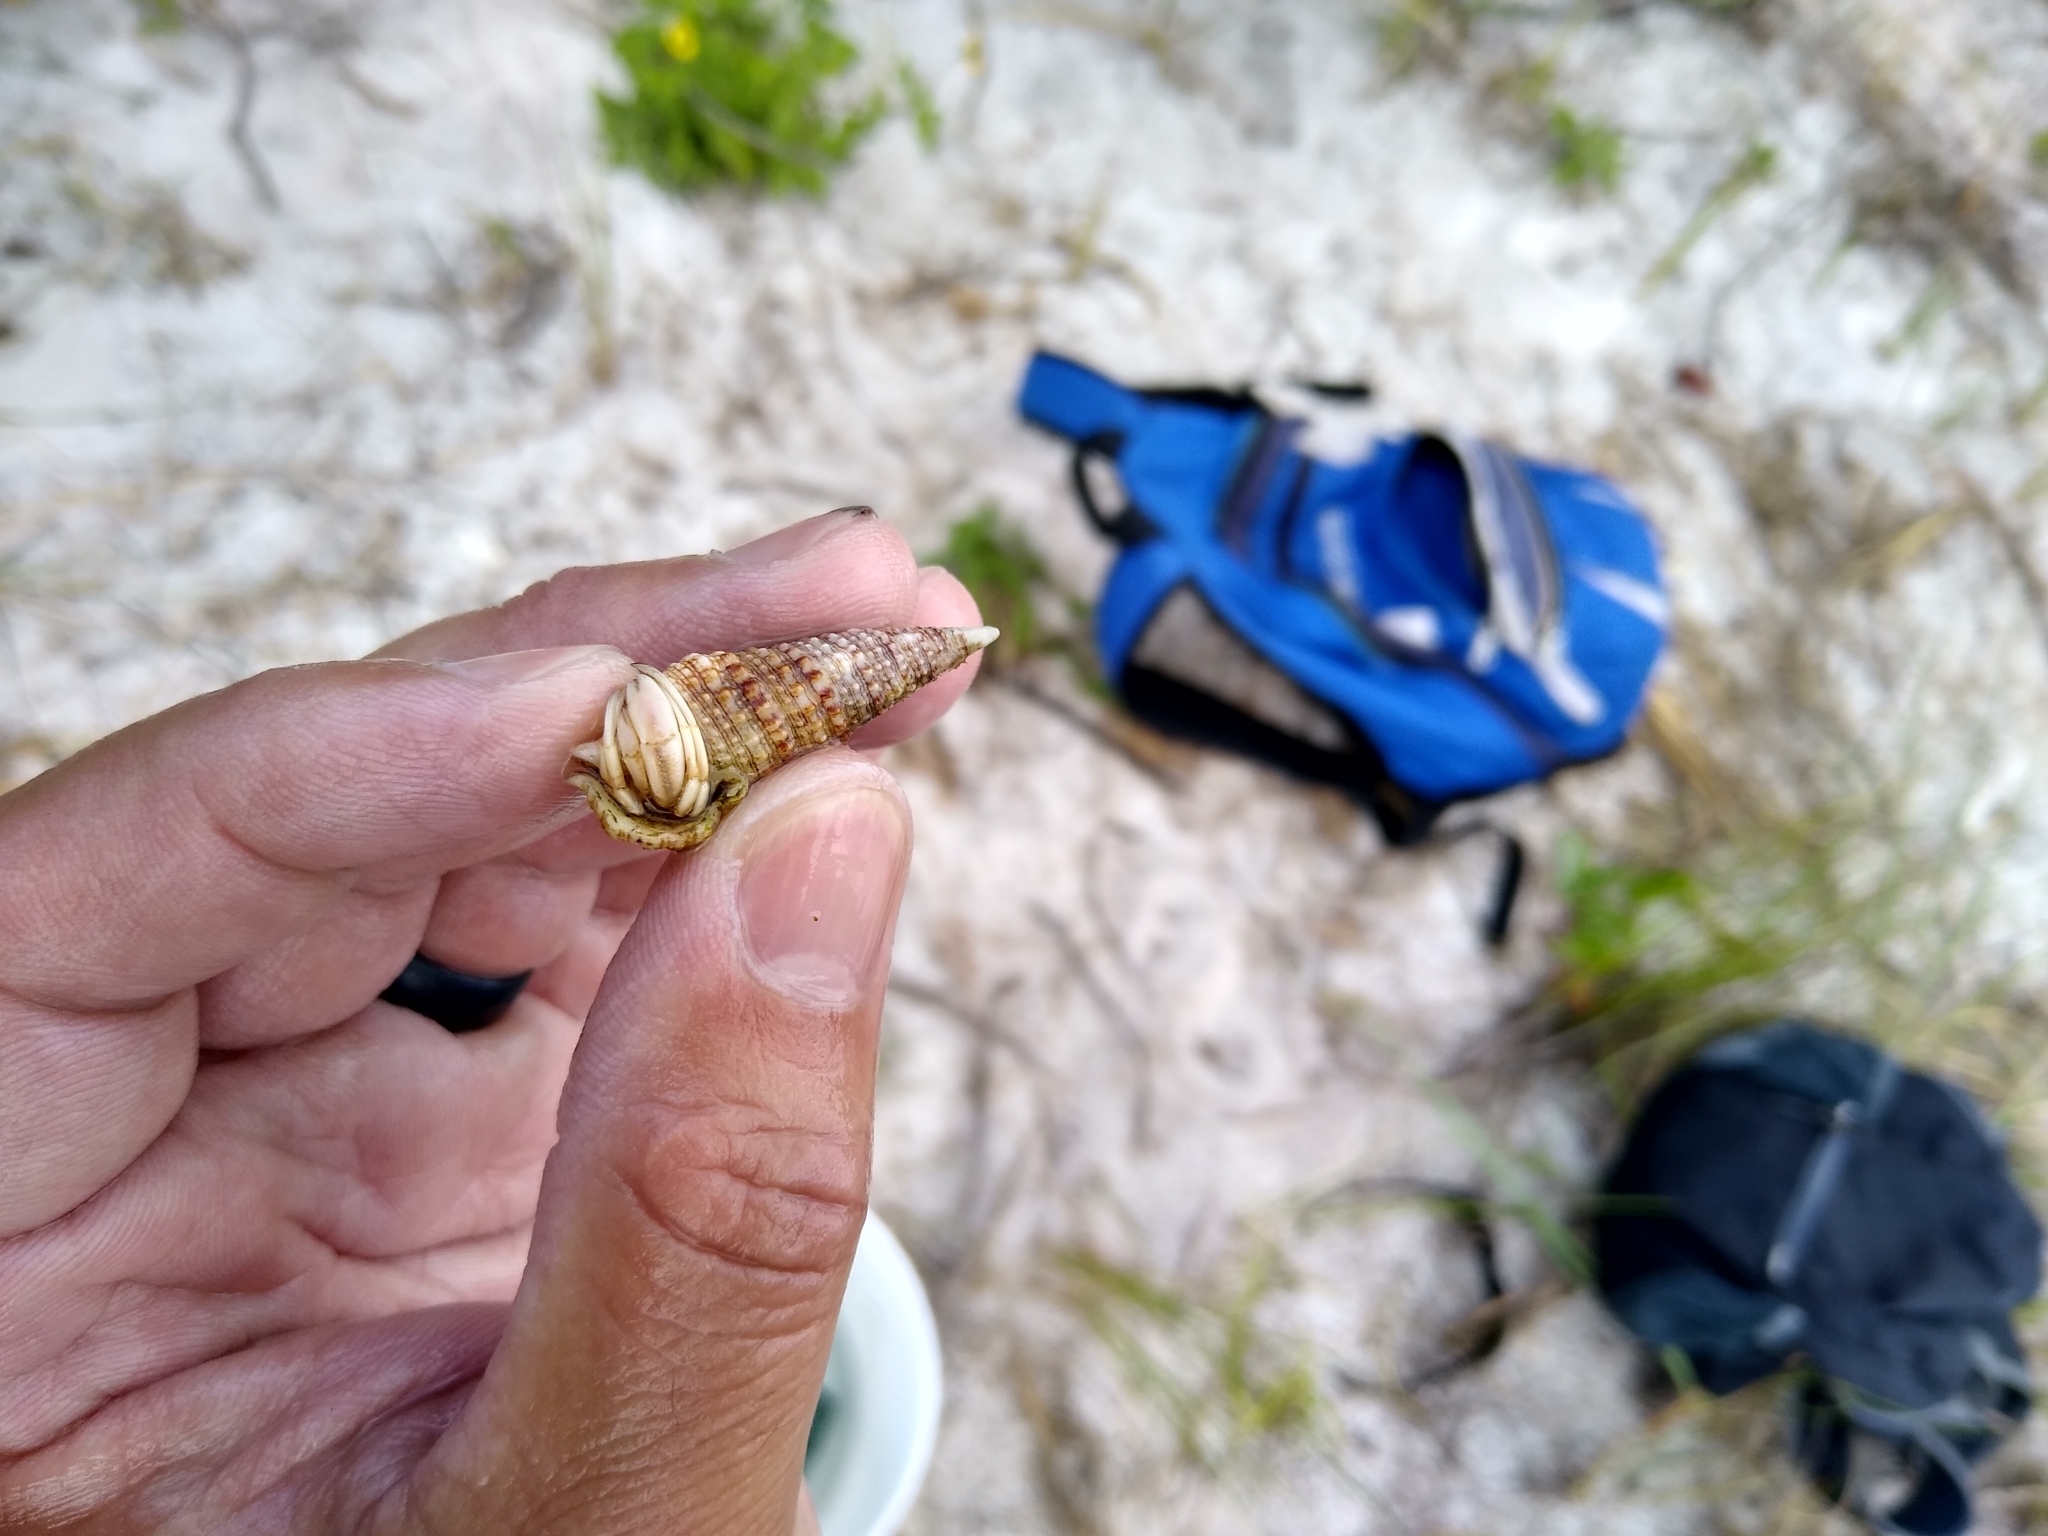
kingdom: Animalia
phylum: Arthropoda
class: Malacostraca
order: Decapoda
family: Paguridae
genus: Pagurus
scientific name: Pagurus longicarpus
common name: Long-armed hermit crab
